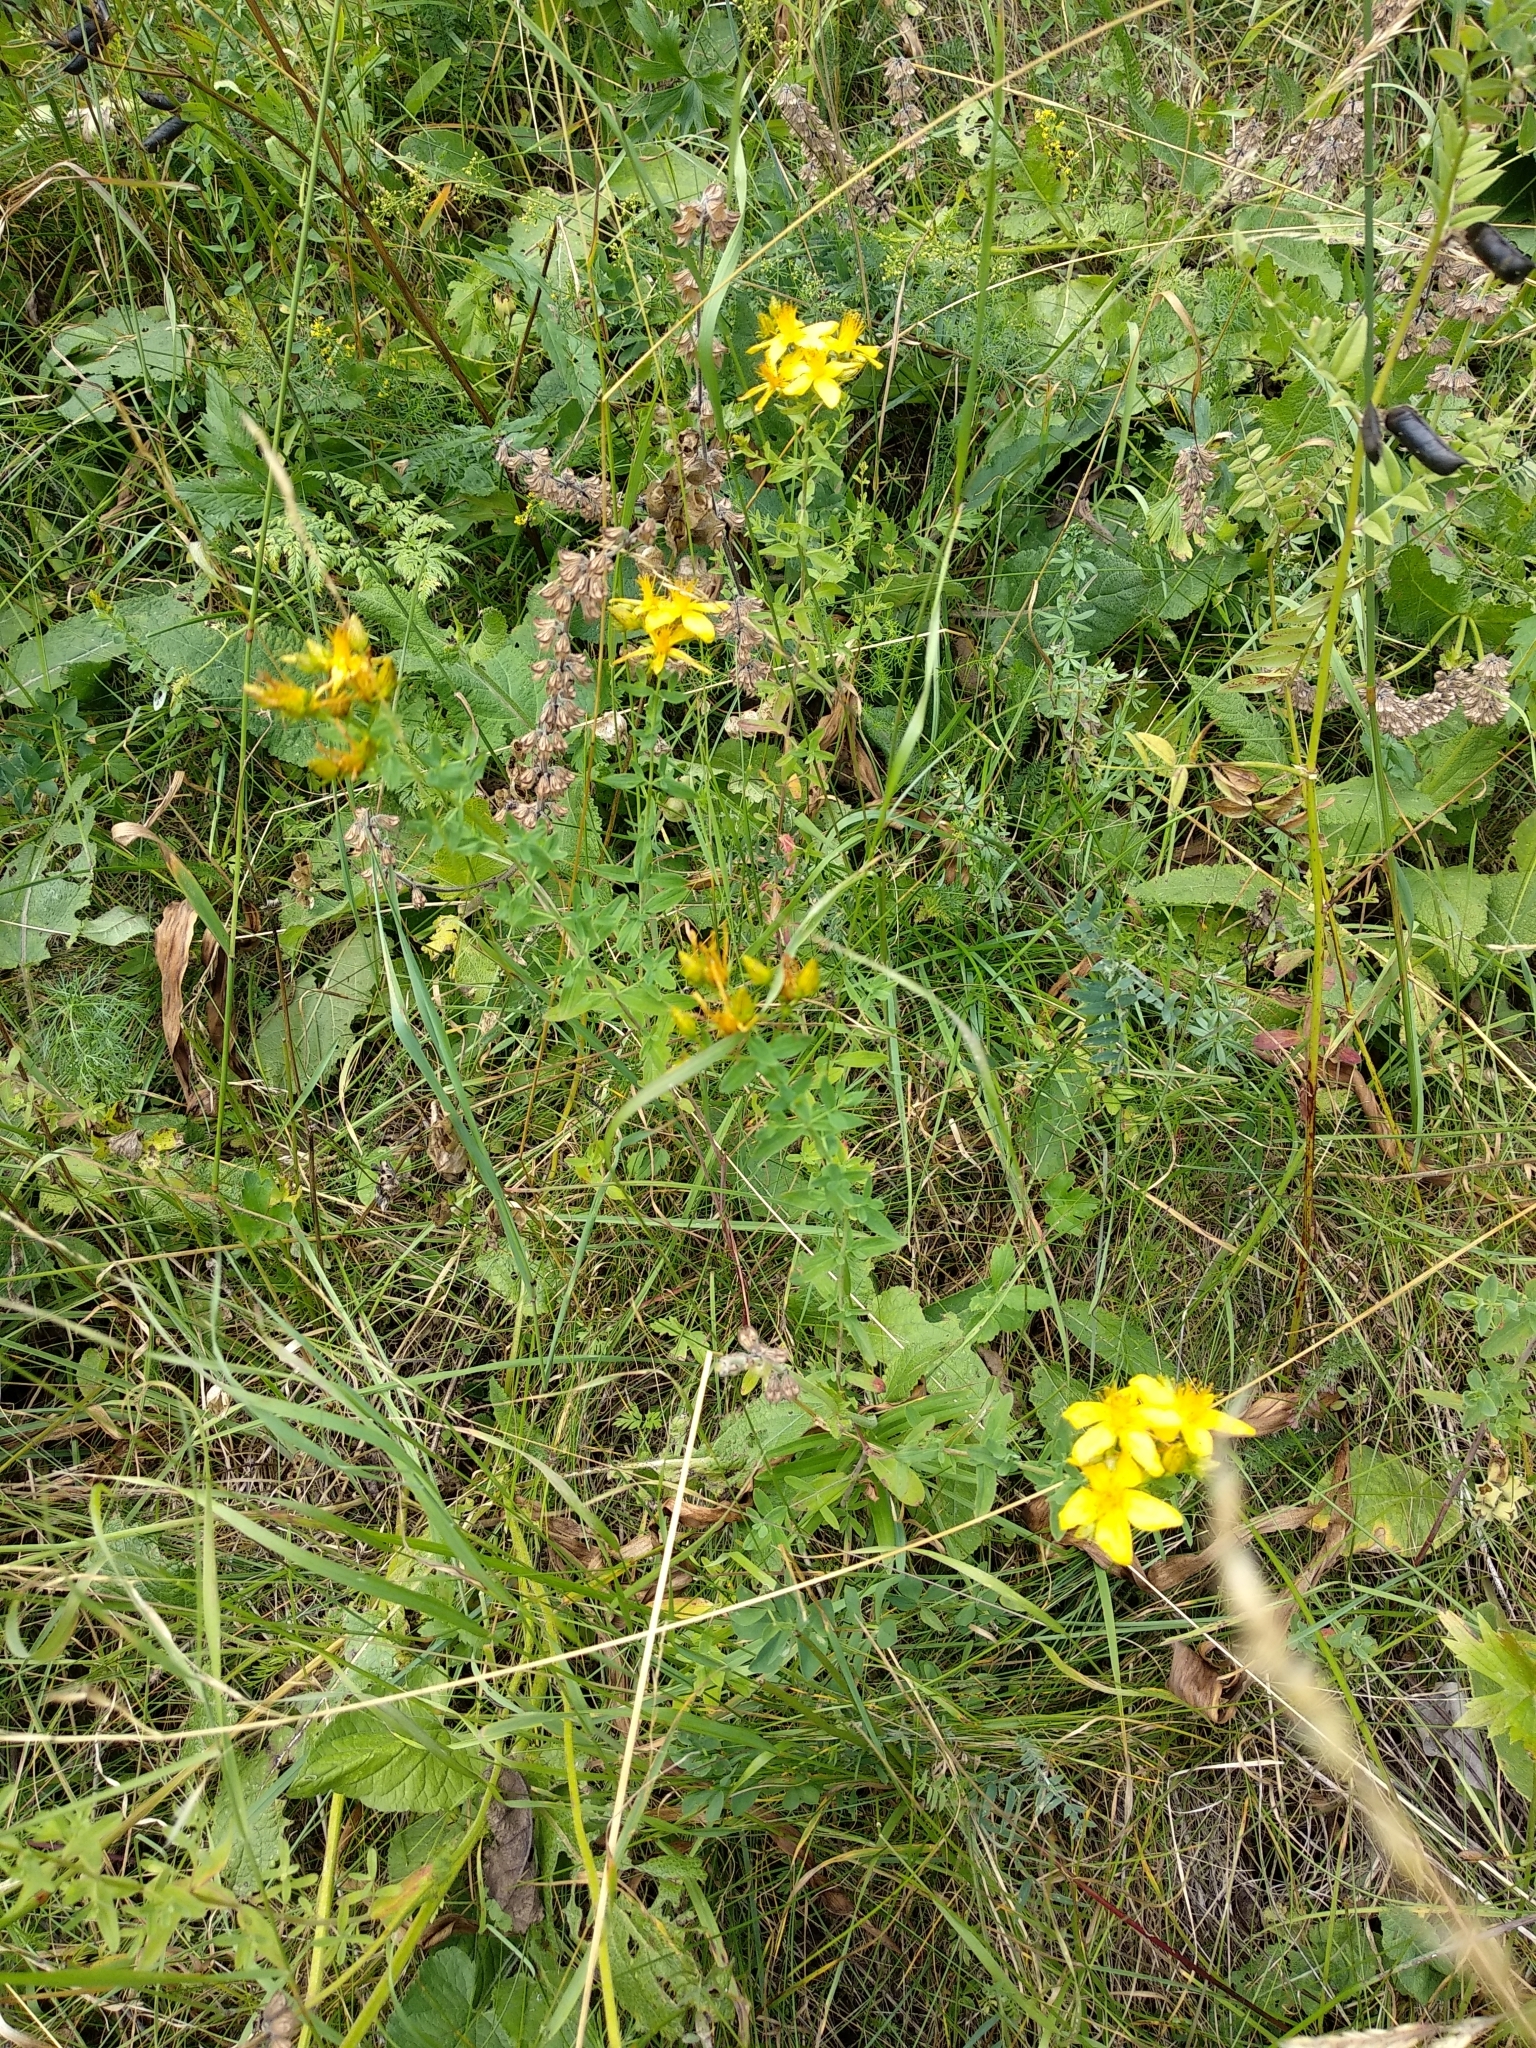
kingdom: Plantae
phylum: Tracheophyta
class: Magnoliopsida
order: Malpighiales
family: Hypericaceae
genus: Hypericum
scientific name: Hypericum perforatum
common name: Common st. johnswort
